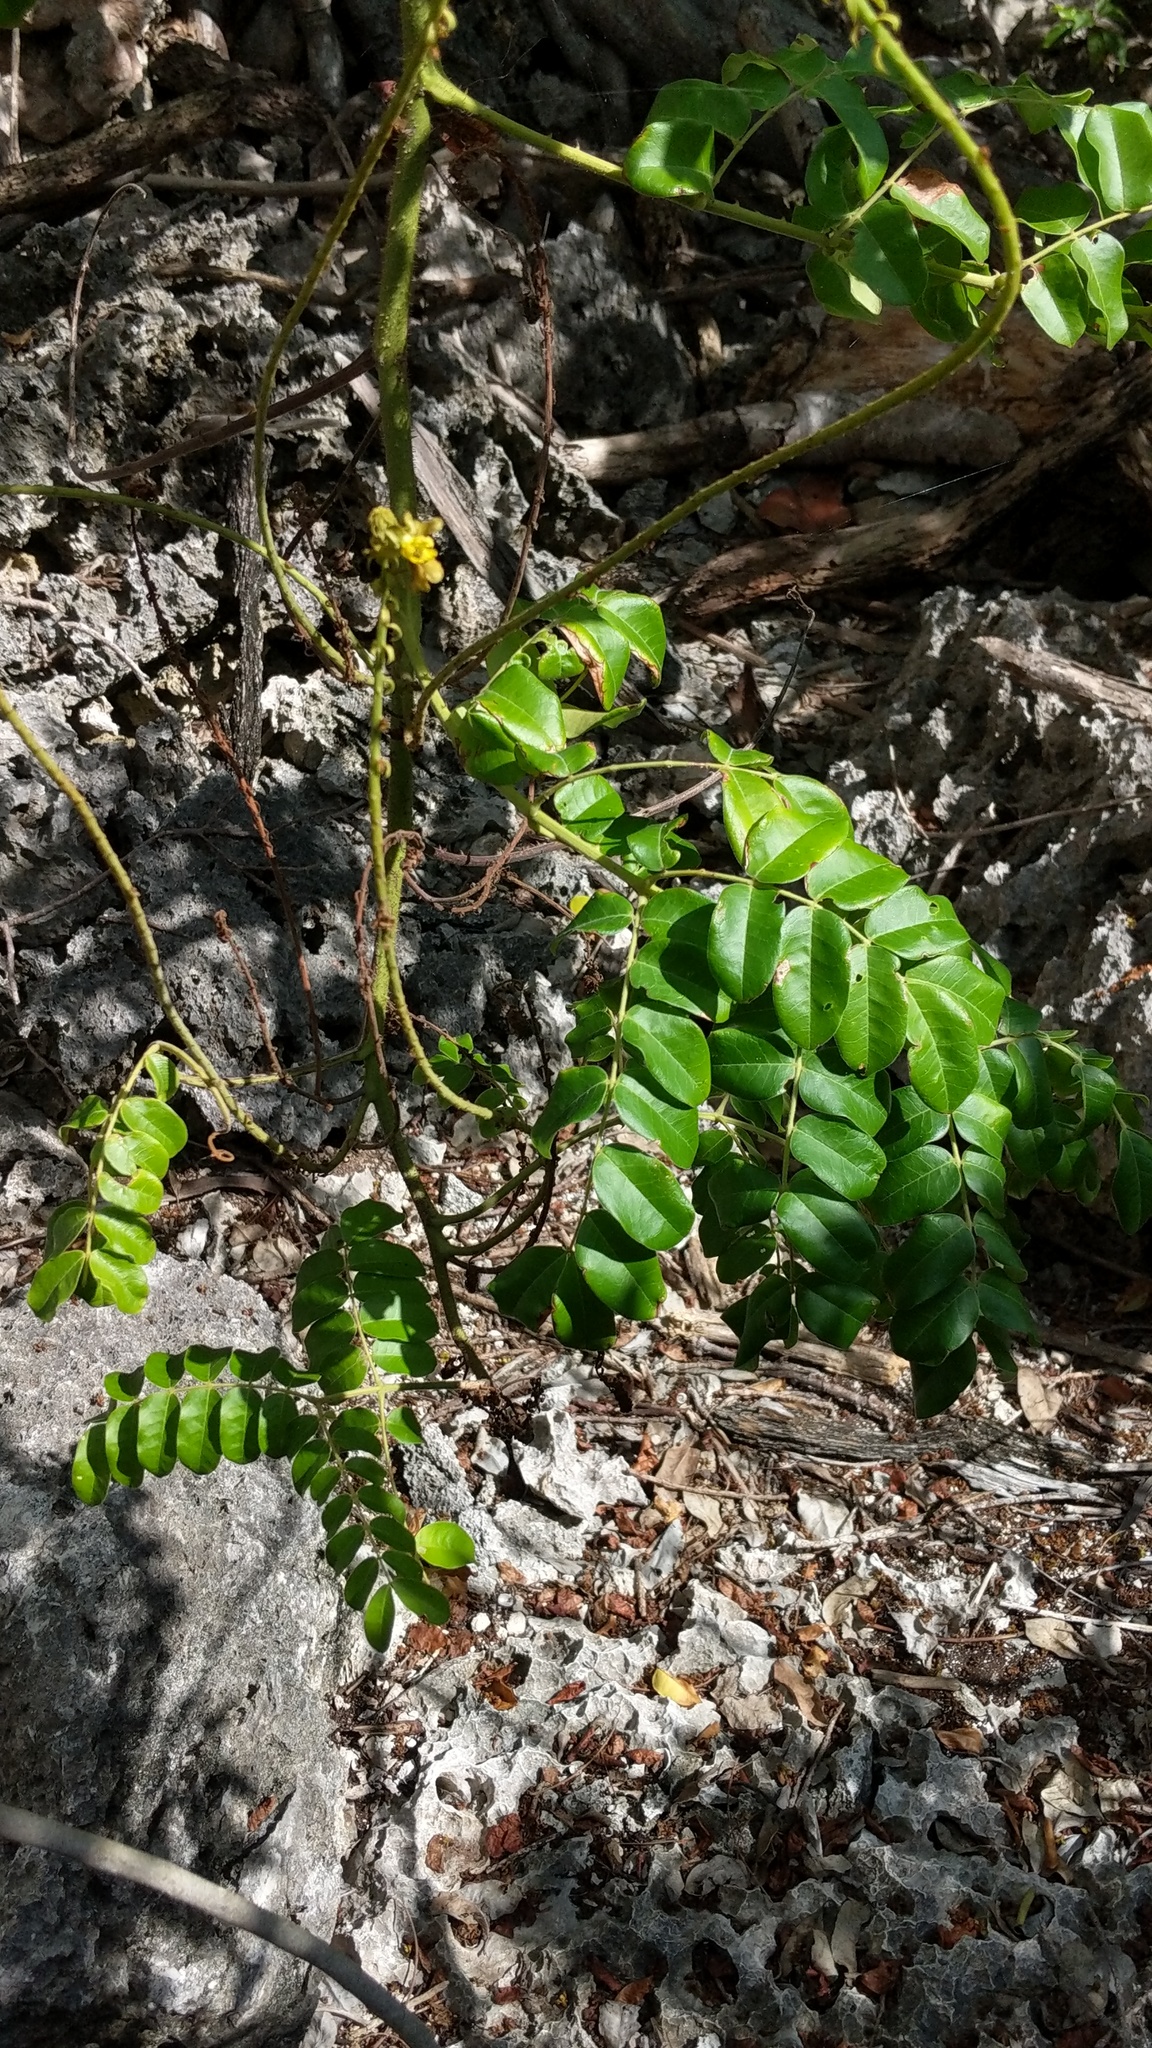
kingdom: Plantae
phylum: Tracheophyta
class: Magnoliopsida
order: Fabales
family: Fabaceae
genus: Guilandina
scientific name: Guilandina bonduc
